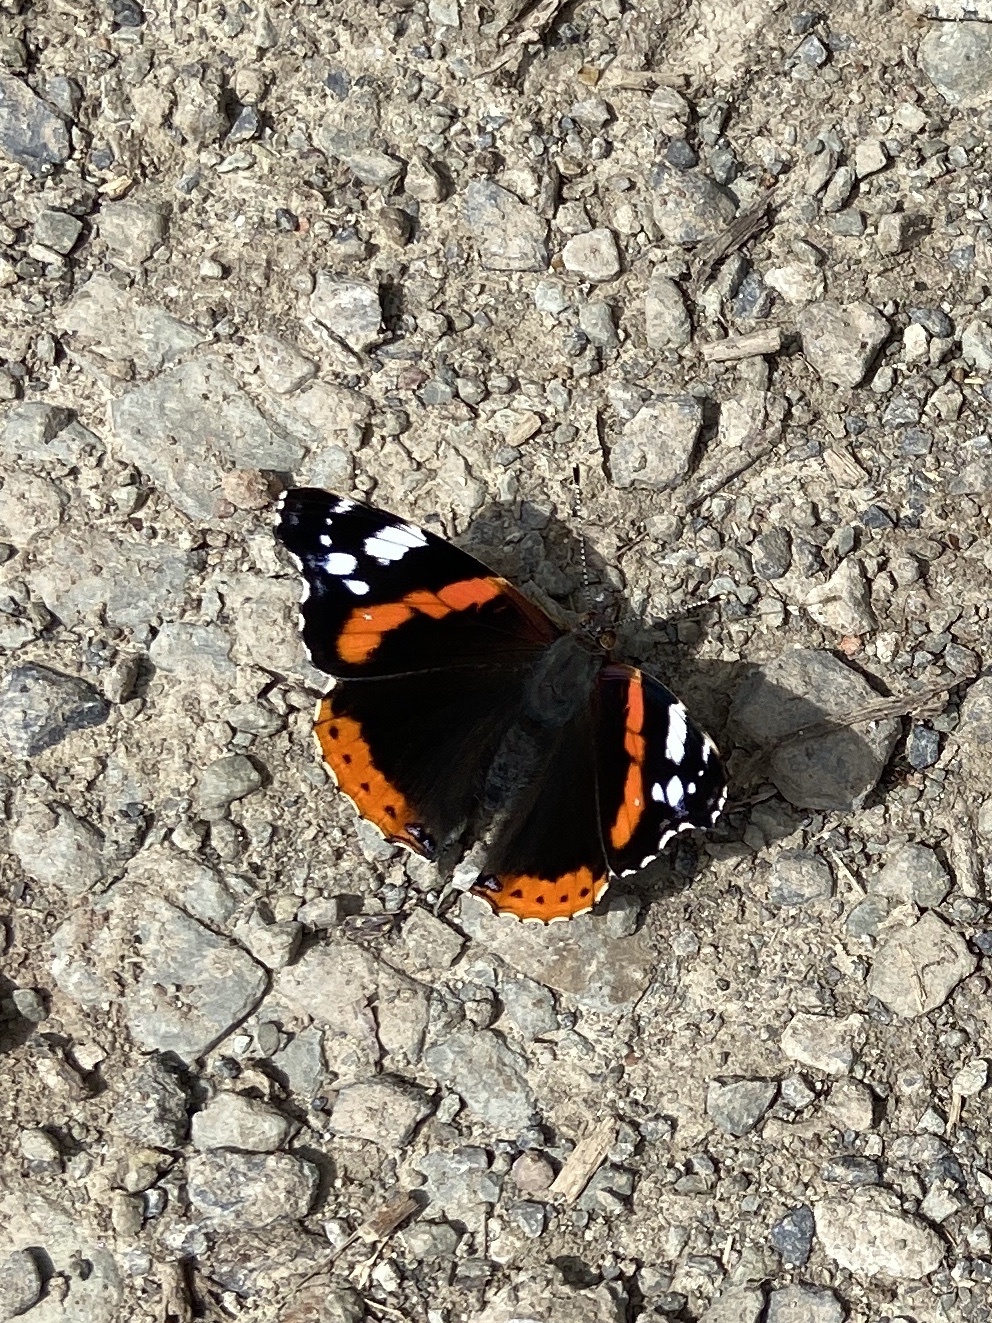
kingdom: Animalia
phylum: Arthropoda
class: Insecta
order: Lepidoptera
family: Nymphalidae
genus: Vanessa
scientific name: Vanessa atalanta
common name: Red admiral
